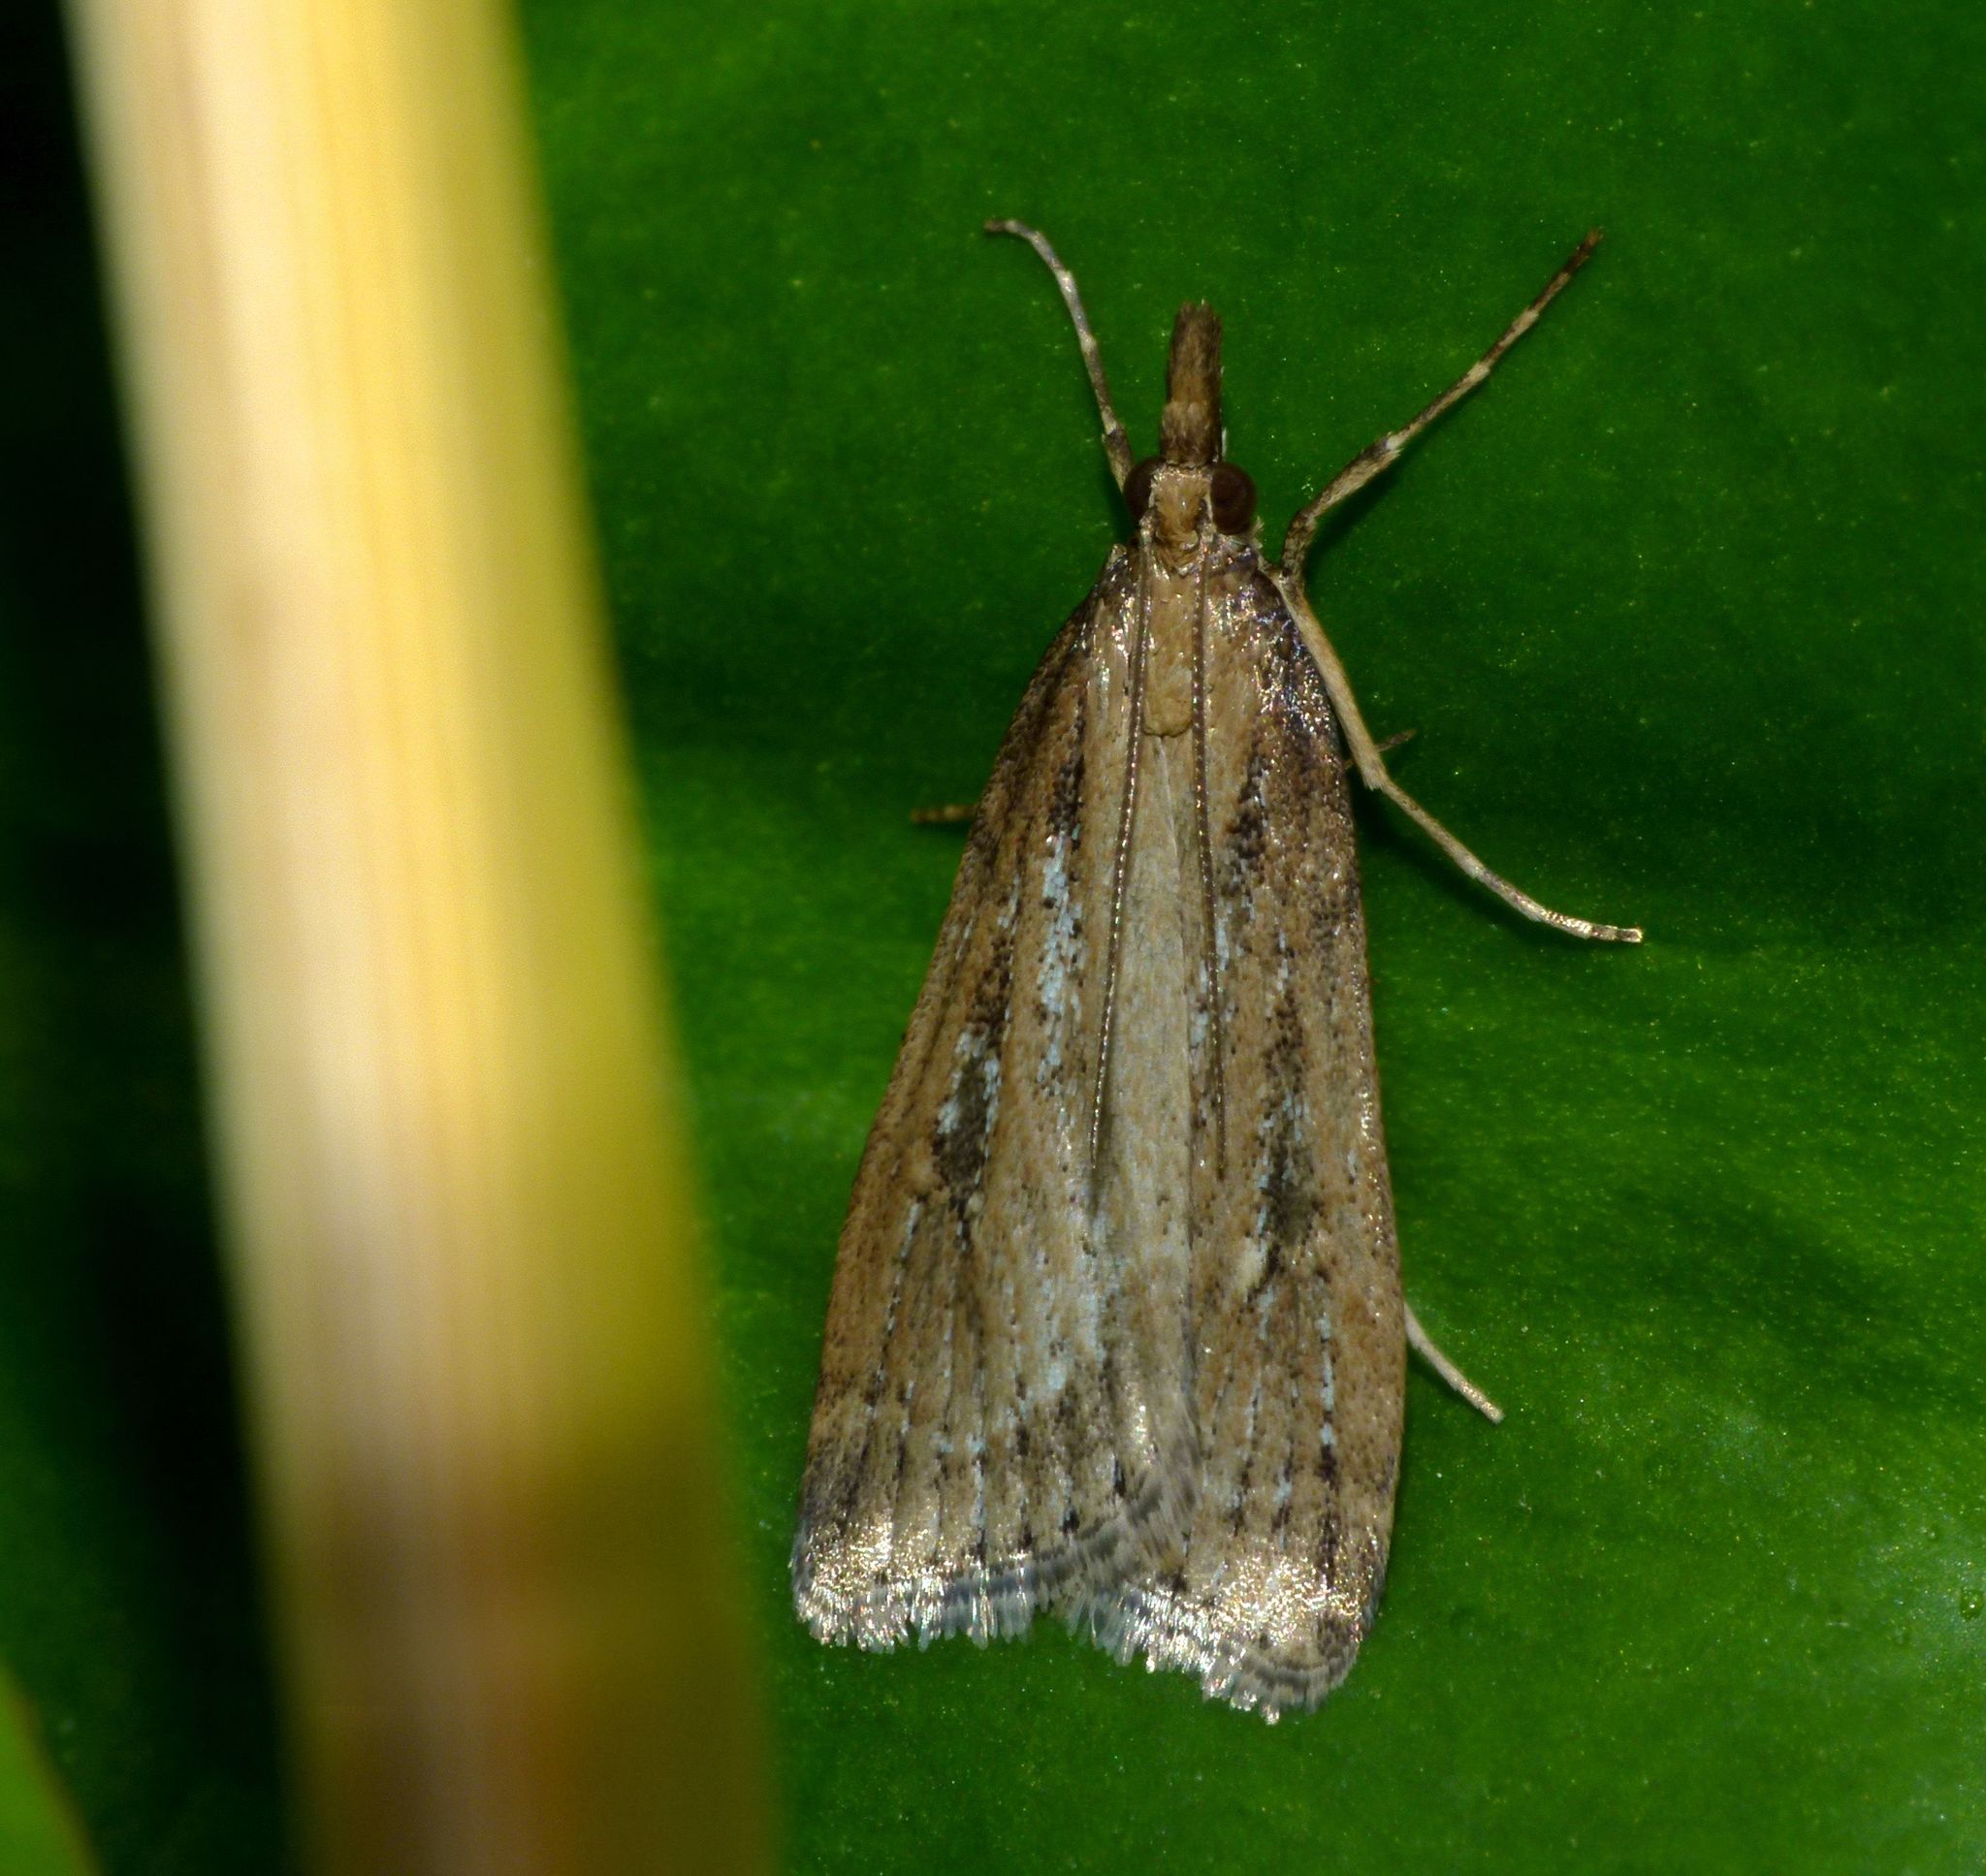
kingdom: Animalia
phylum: Arthropoda
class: Insecta
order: Lepidoptera
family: Crambidae
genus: Eudonia
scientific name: Eudonia octophora
